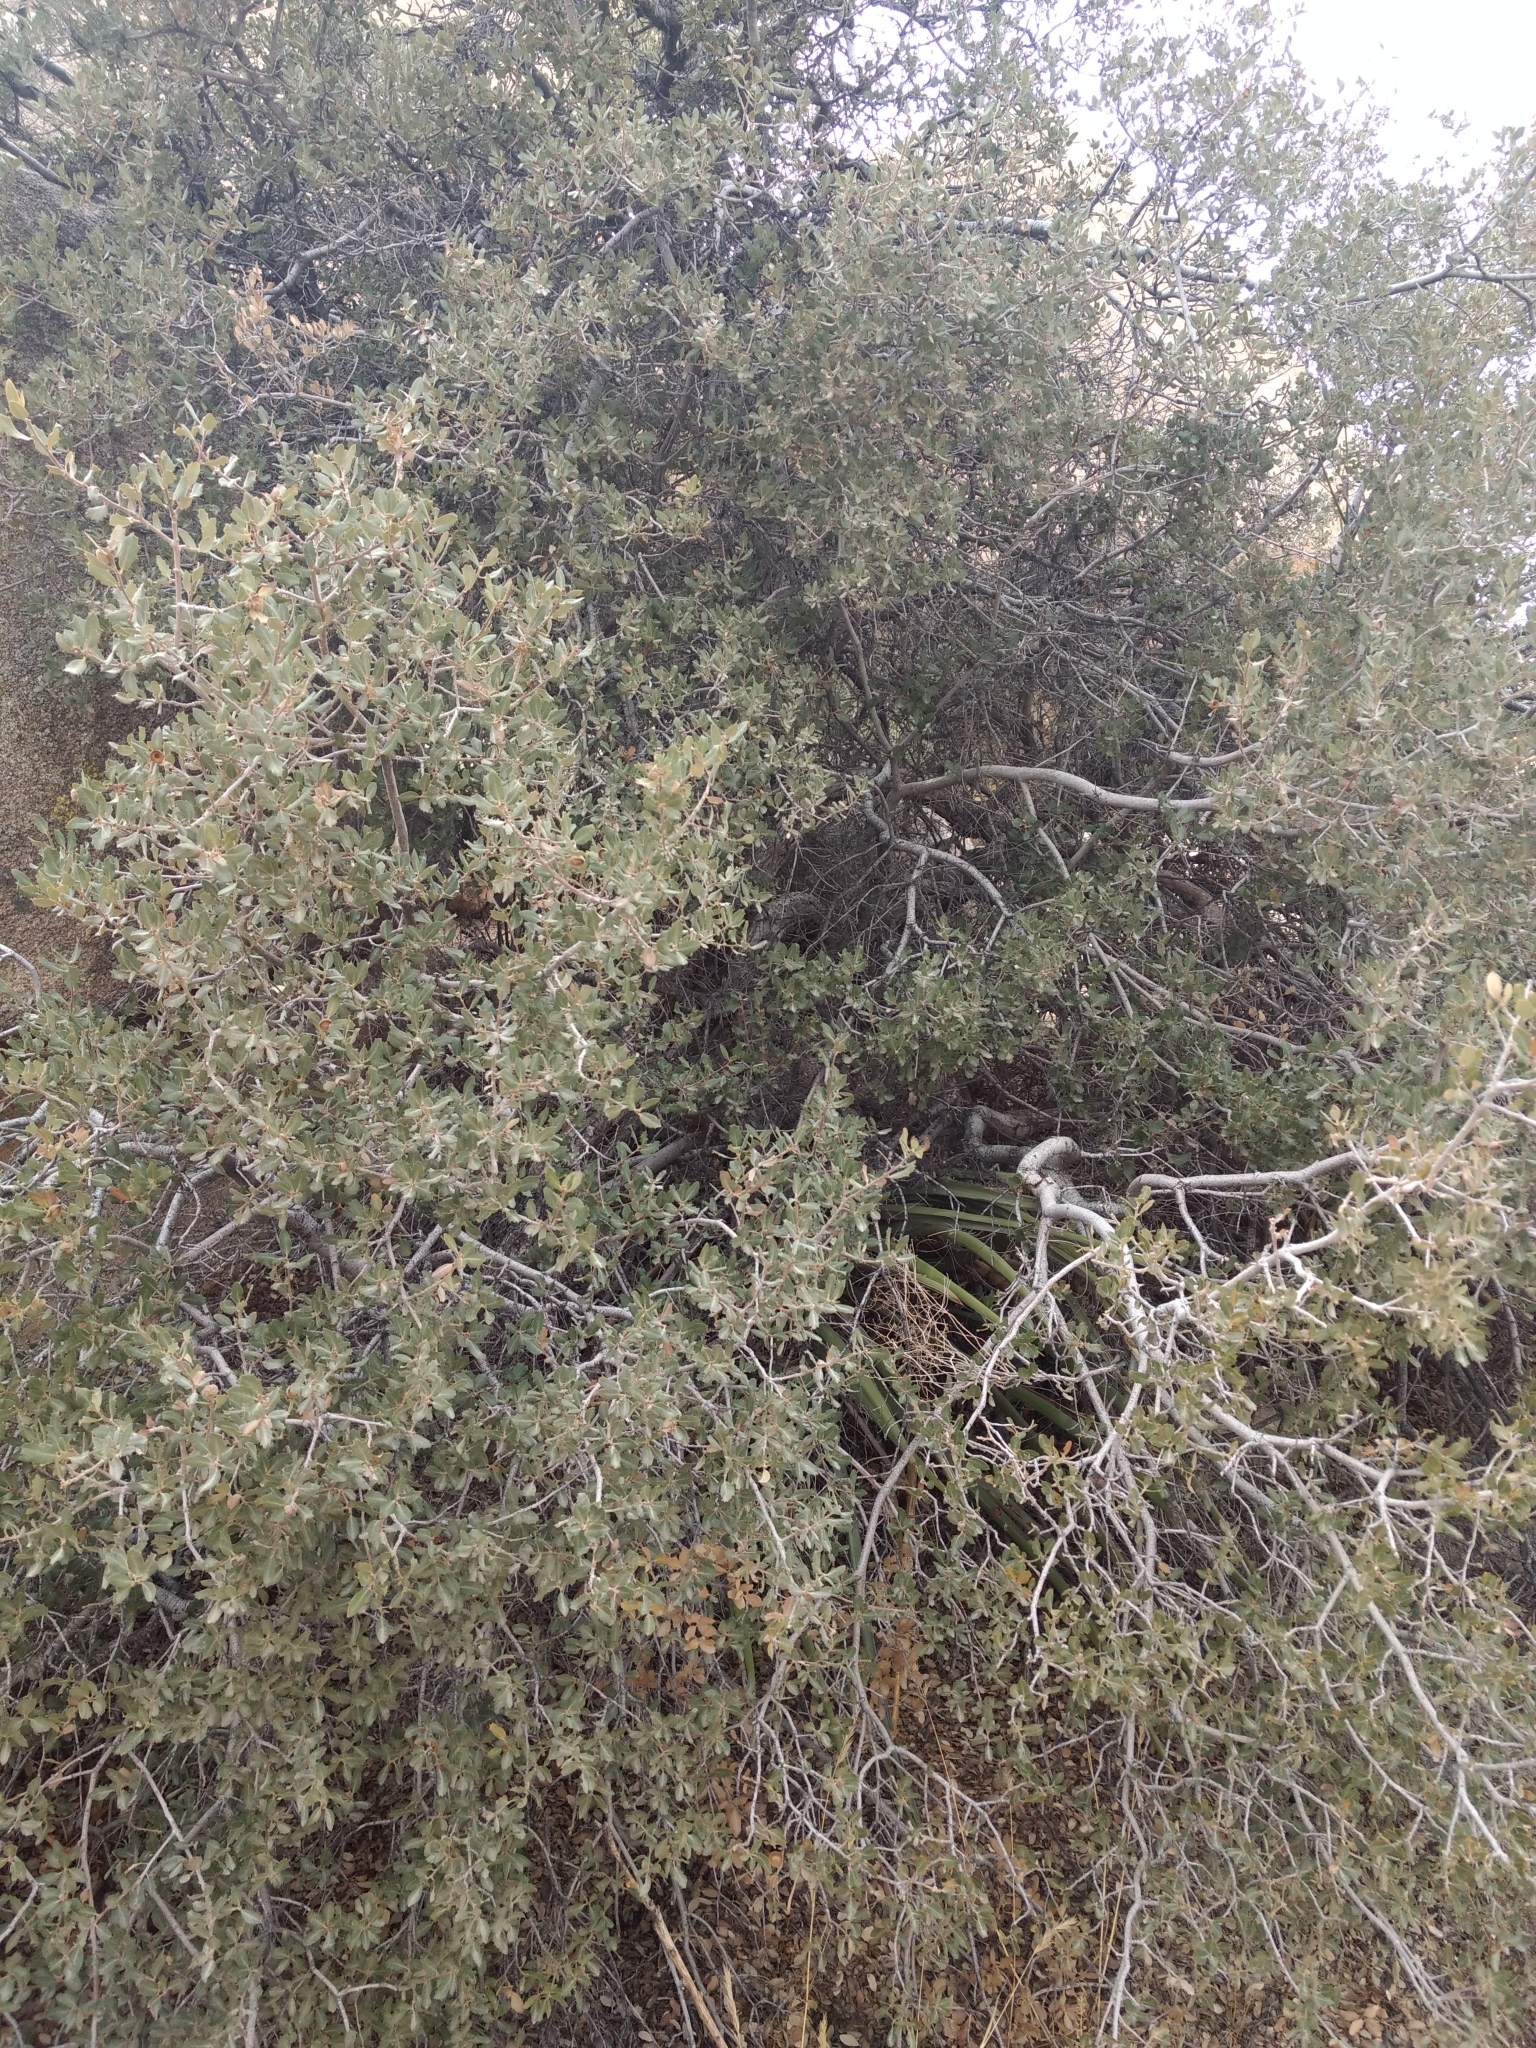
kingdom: Plantae
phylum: Tracheophyta
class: Magnoliopsida
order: Fagales
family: Fagaceae
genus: Quercus
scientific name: Quercus cornelius-mulleri
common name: Muller oak
